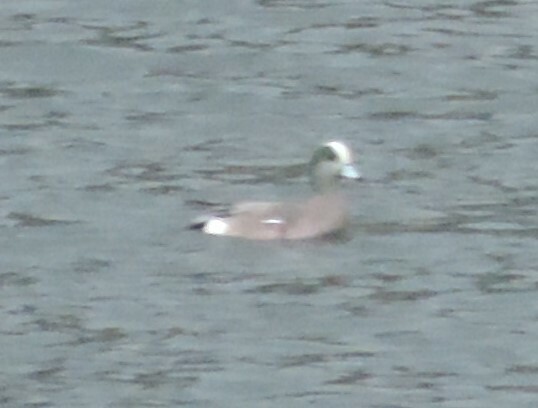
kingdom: Animalia
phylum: Chordata
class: Aves
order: Anseriformes
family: Anatidae
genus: Mareca
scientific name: Mareca americana
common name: American wigeon
